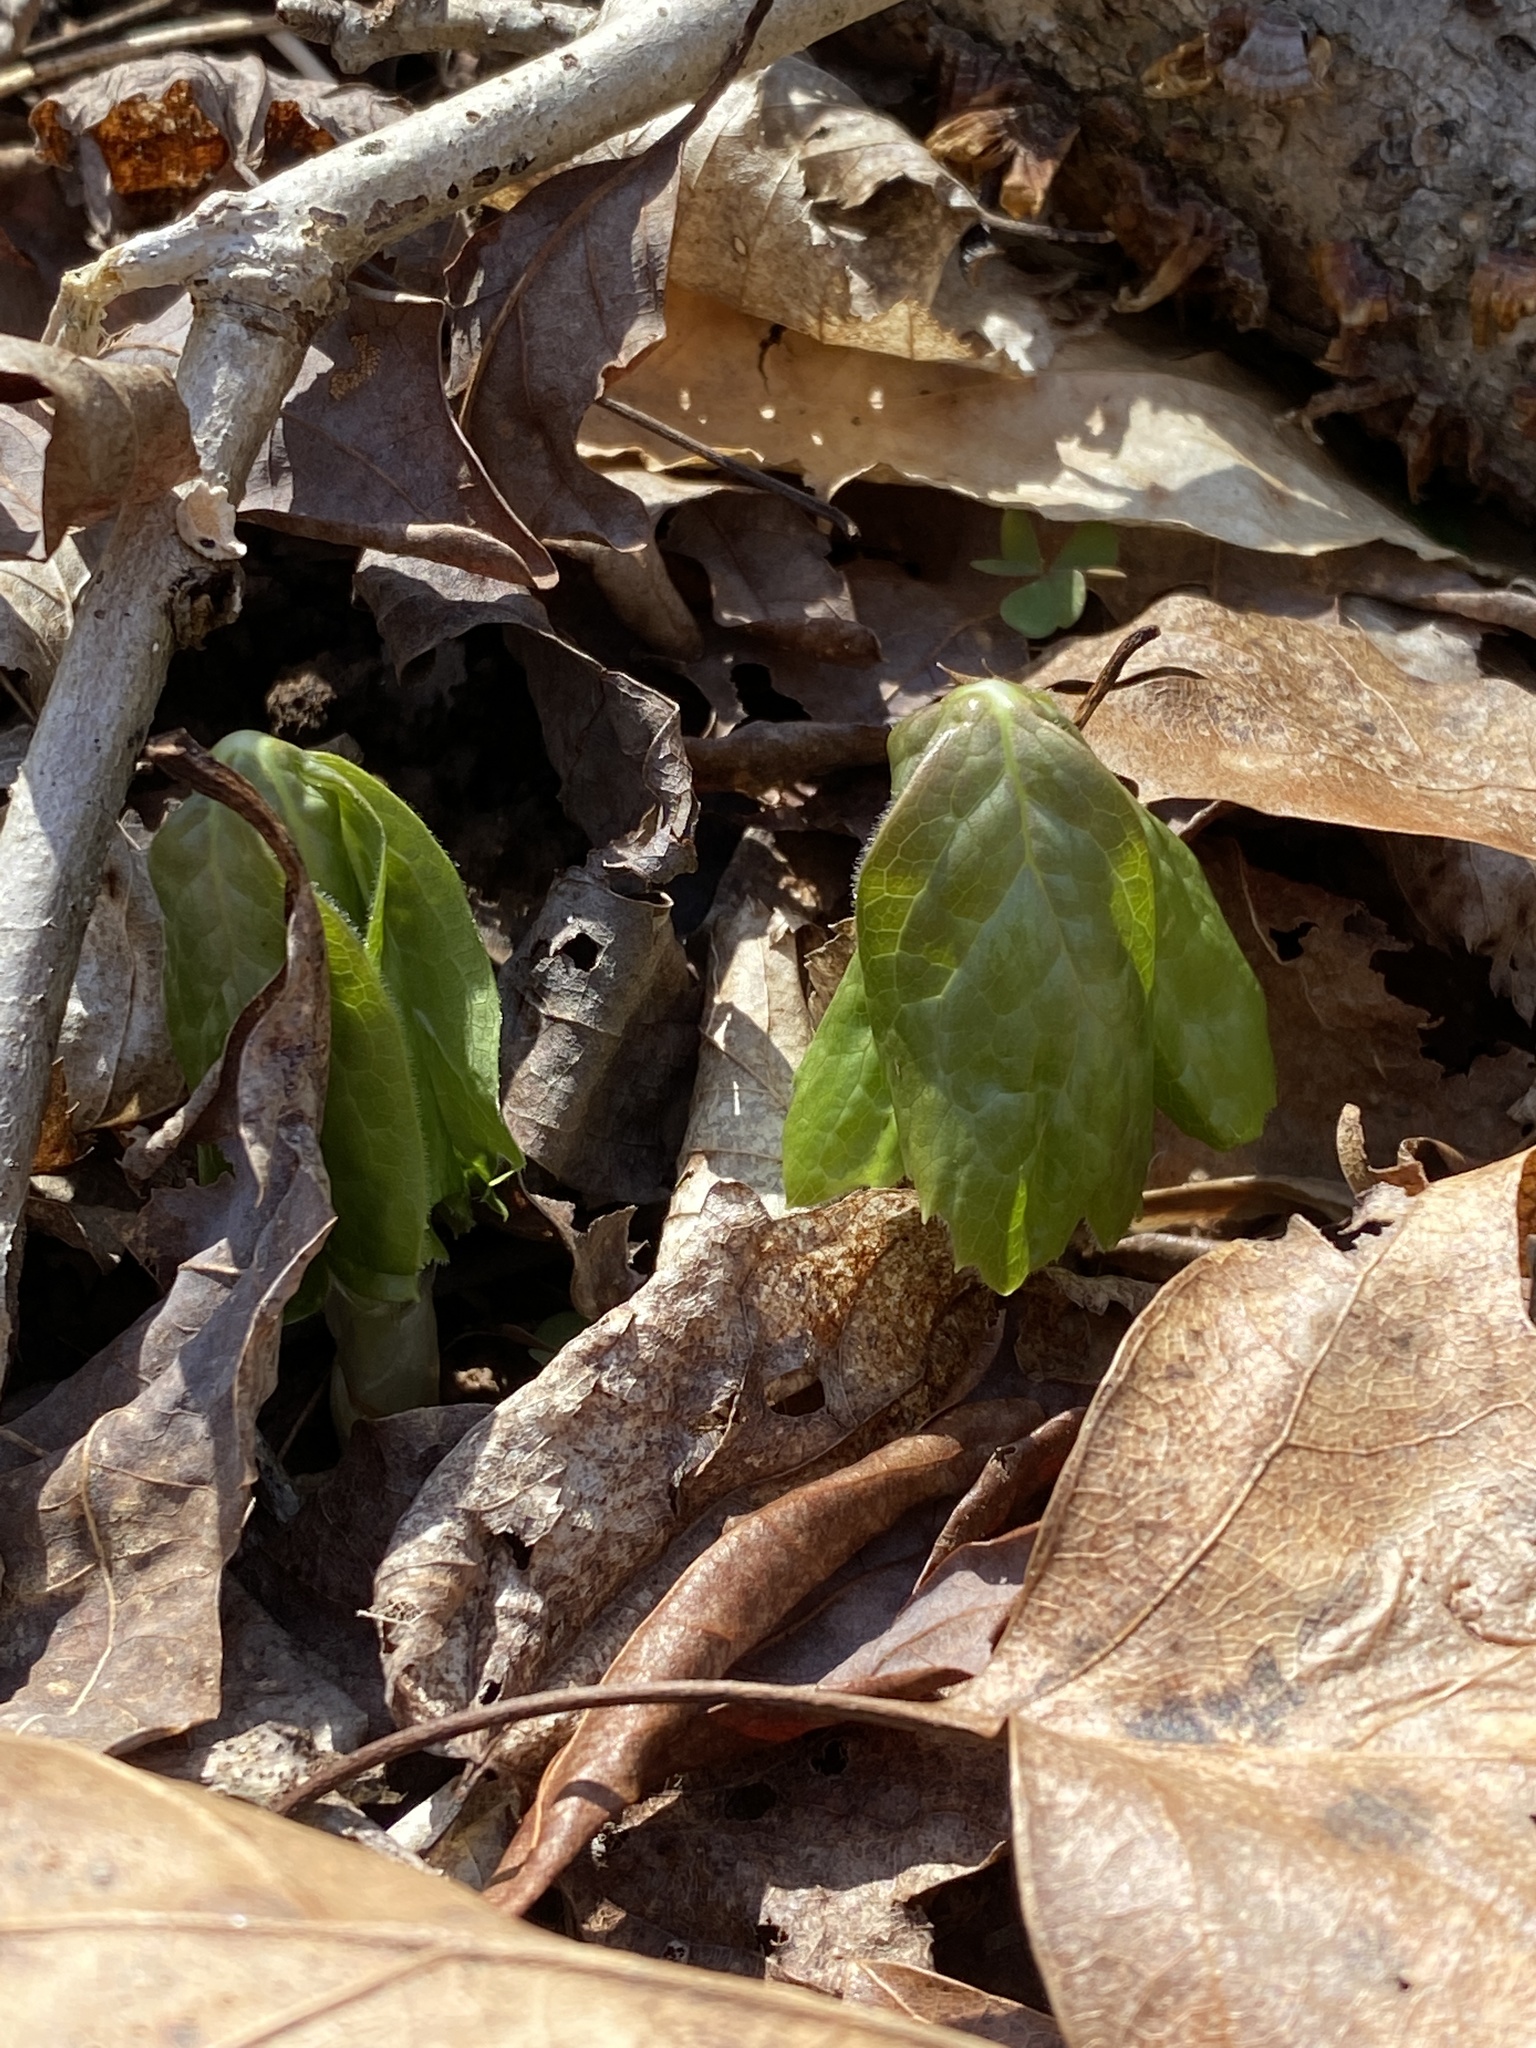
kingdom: Plantae
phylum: Tracheophyta
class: Magnoliopsida
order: Ranunculales
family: Berberidaceae
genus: Podophyllum
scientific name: Podophyllum peltatum
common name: Wild mandrake
